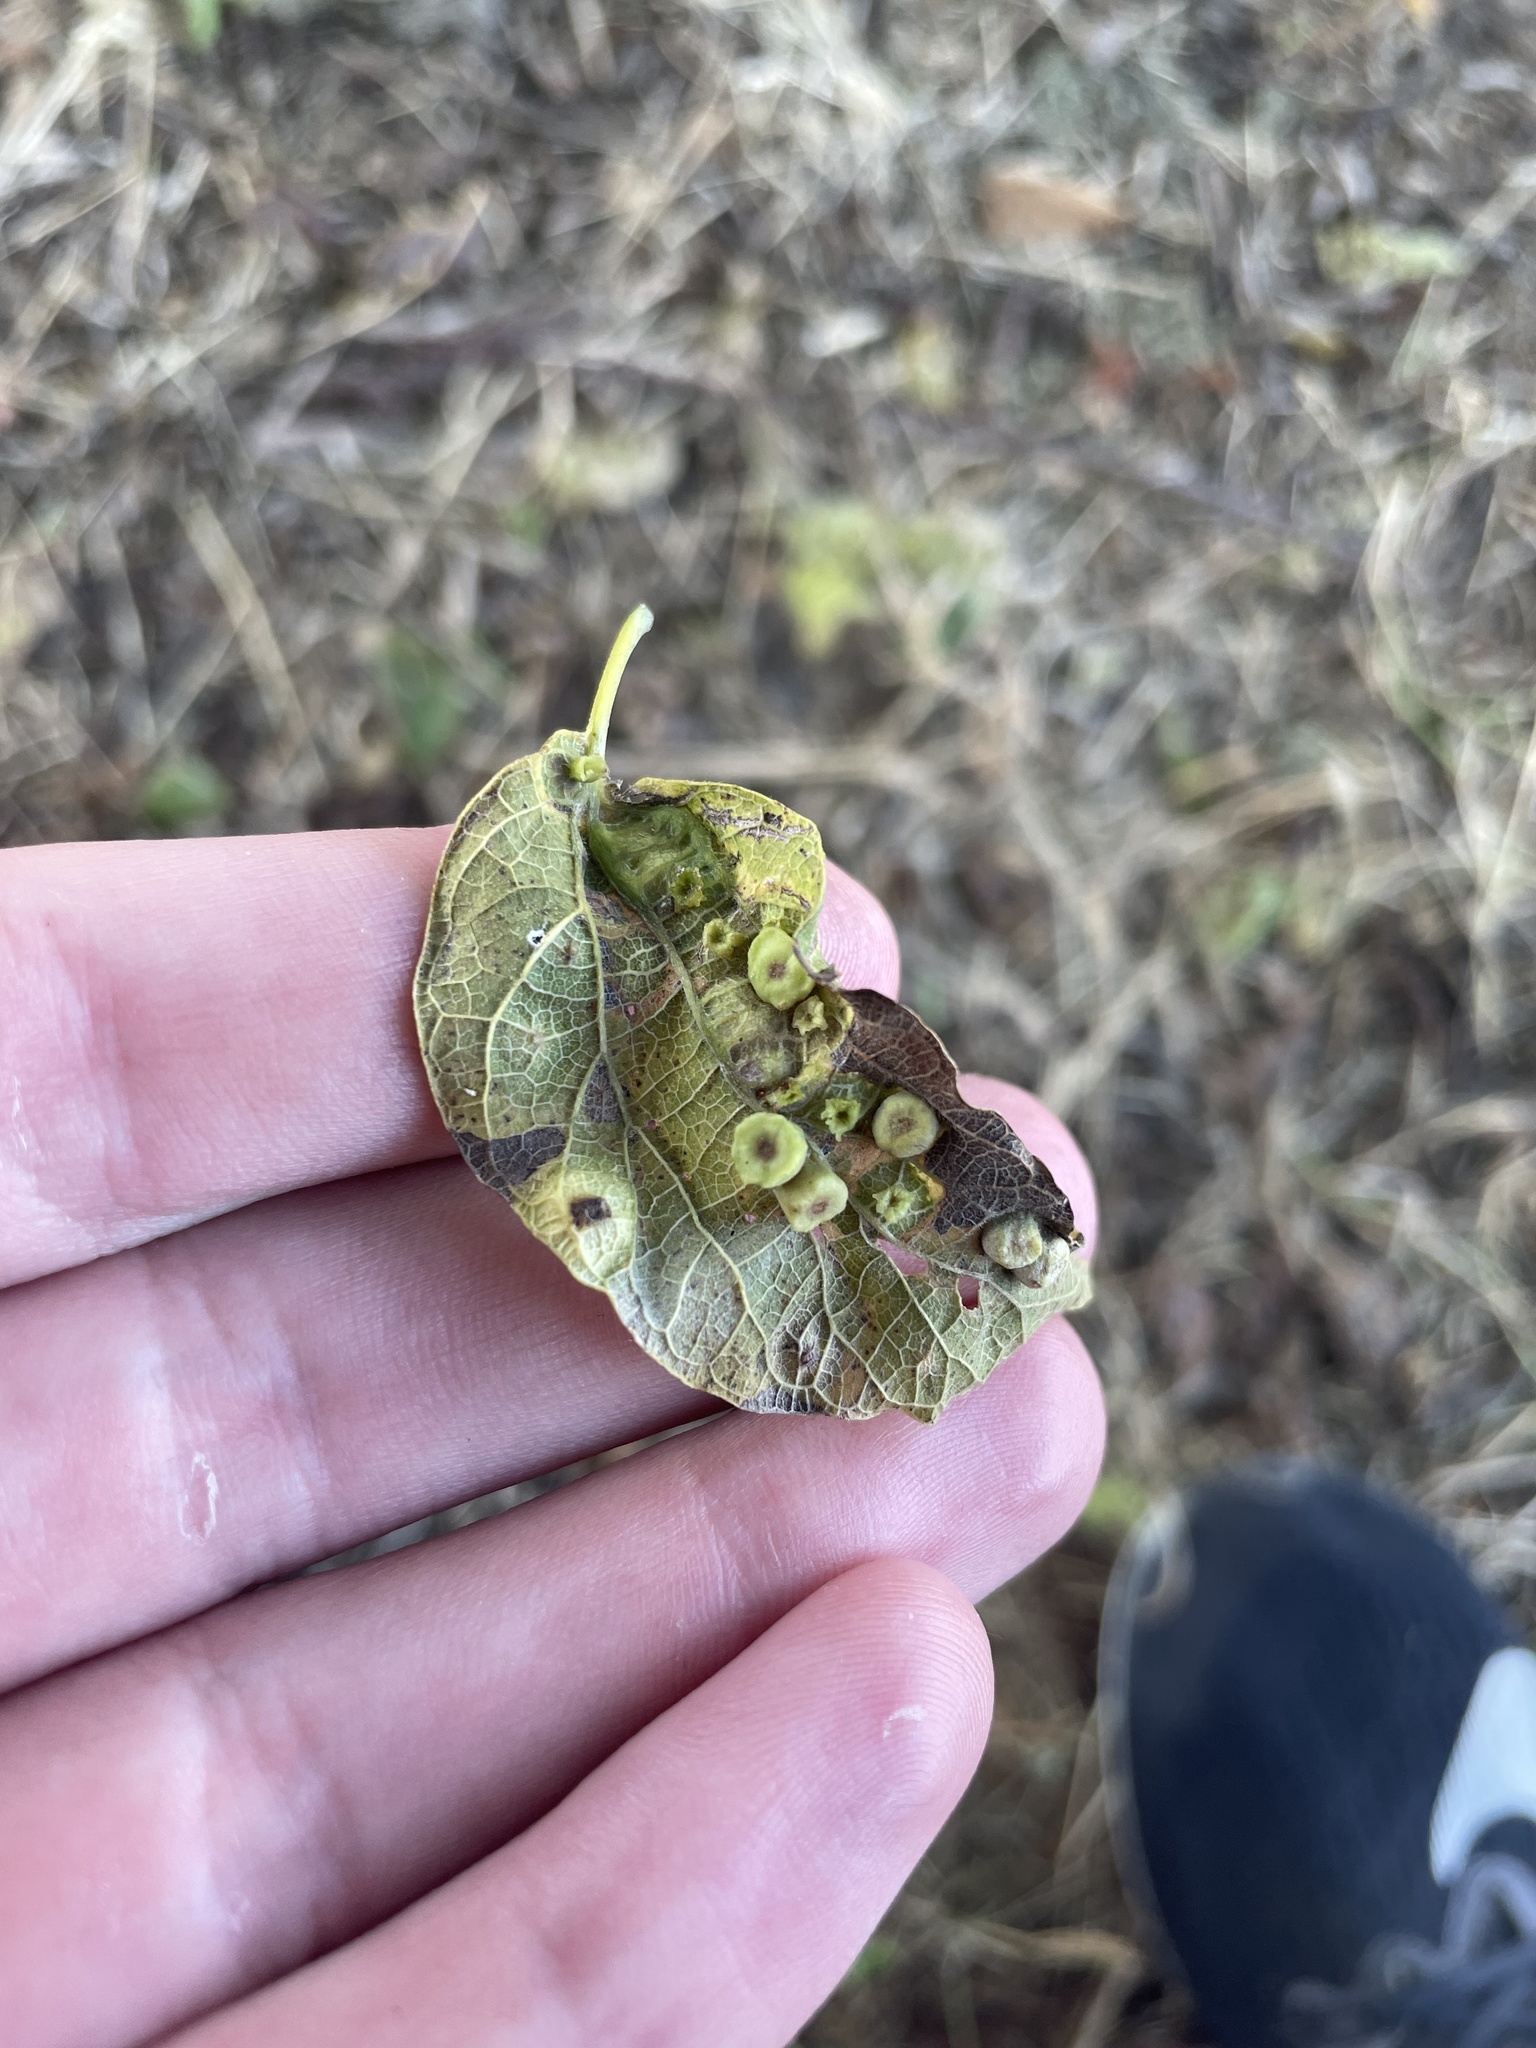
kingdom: Animalia
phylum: Arthropoda
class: Insecta
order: Hemiptera
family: Aphalaridae
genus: Pachypsylla
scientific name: Pachypsylla celtidismamma
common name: Hackberry nipplegall psyllid
